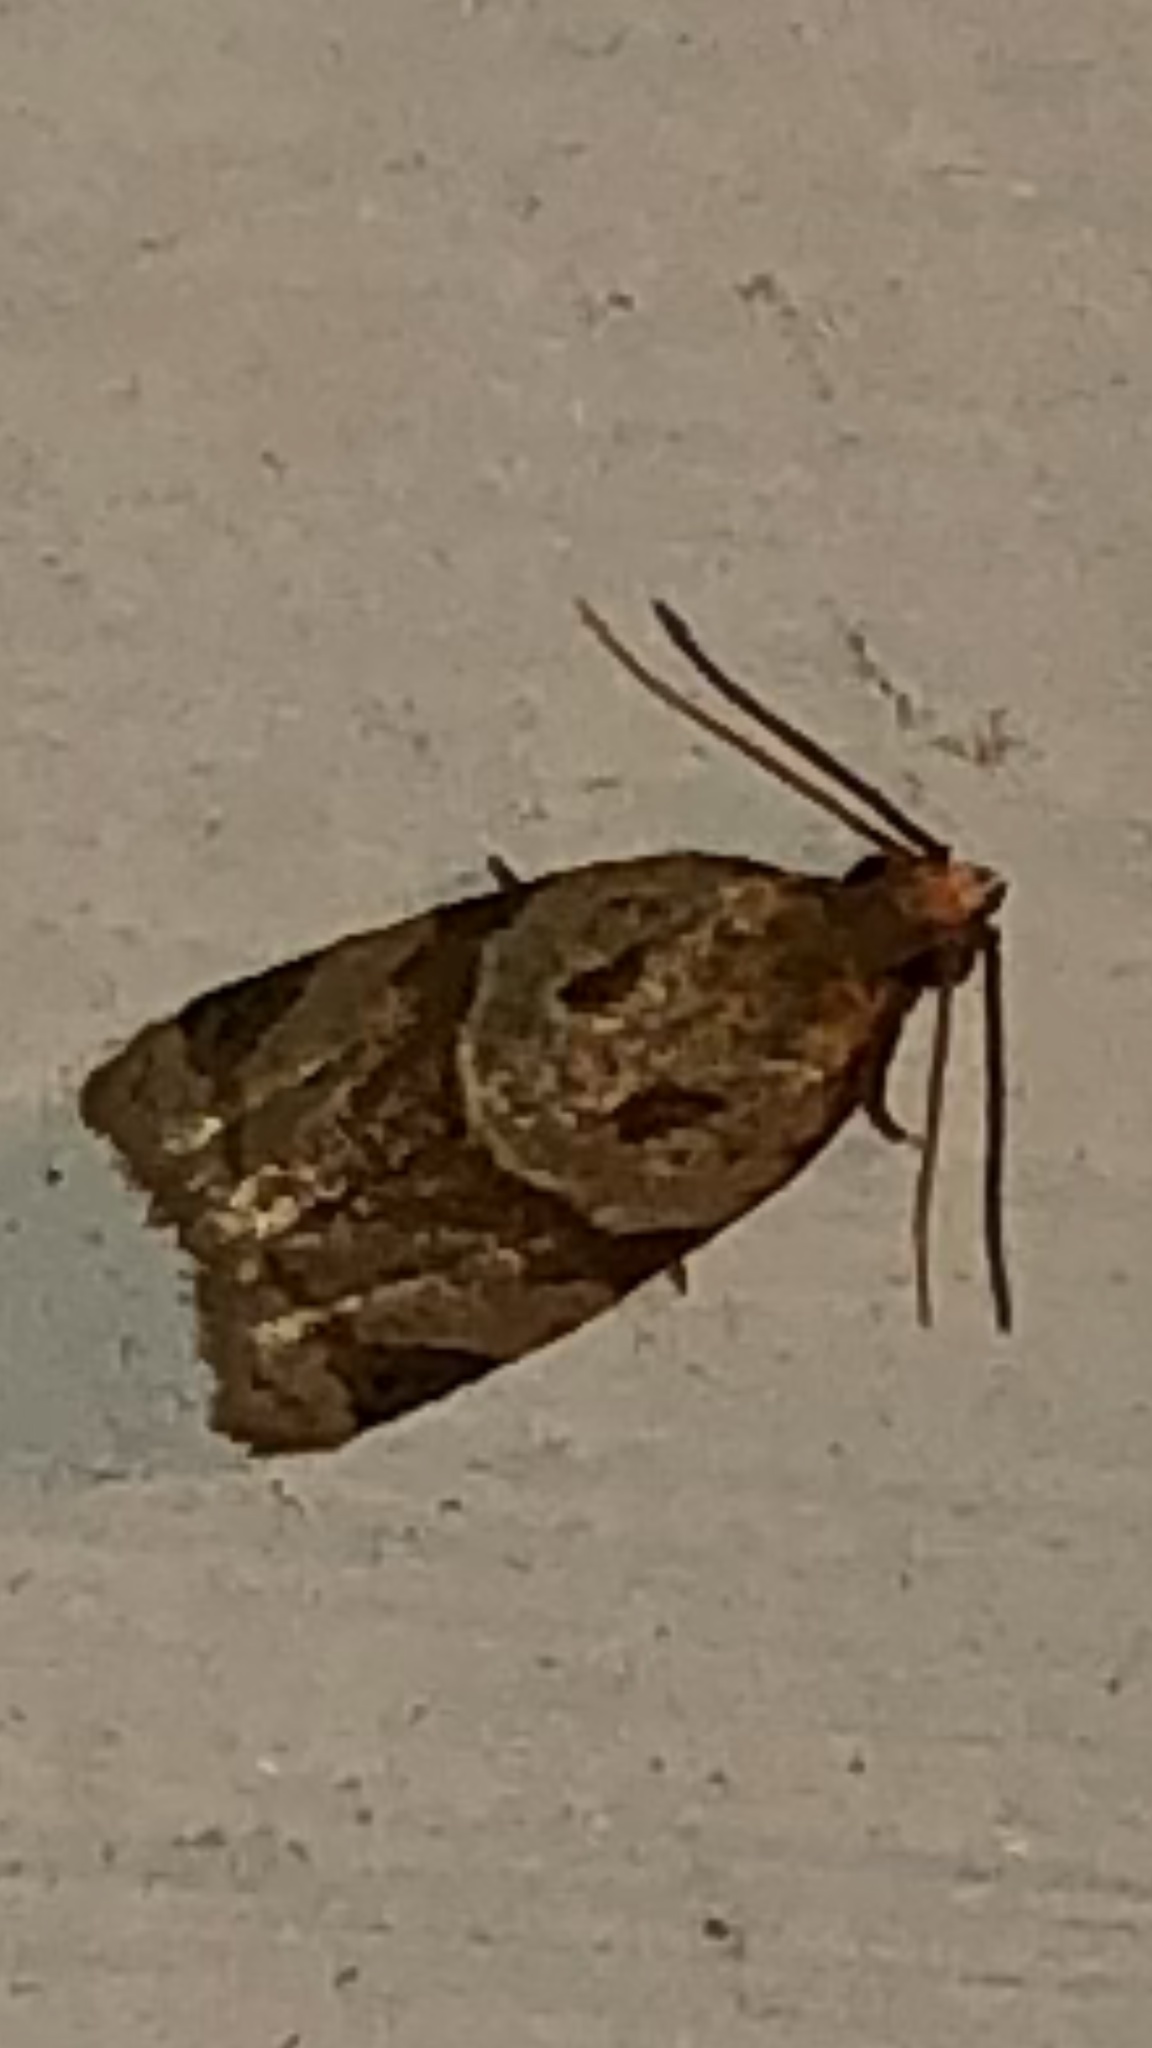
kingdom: Animalia
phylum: Arthropoda
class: Insecta
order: Lepidoptera
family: Tortricidae
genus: Clepsis
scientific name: Clepsis peritana
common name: Garden tortrix
